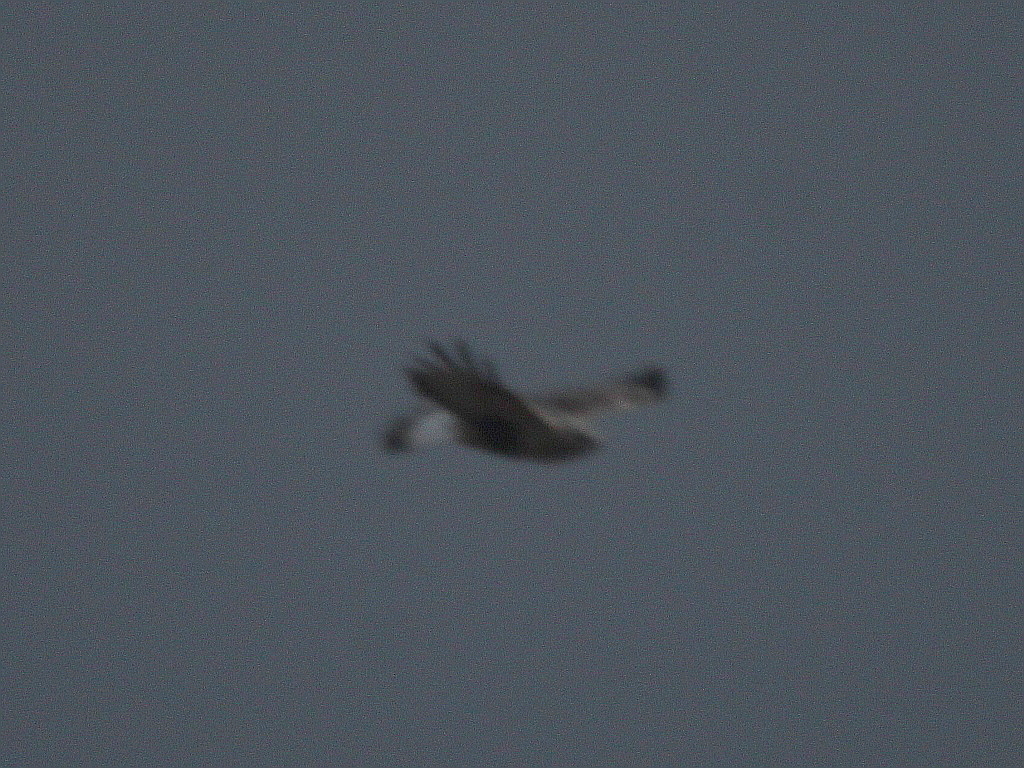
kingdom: Animalia
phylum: Chordata
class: Aves
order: Accipitriformes
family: Accipitridae
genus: Buteo
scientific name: Buteo lagopus
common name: Rough-legged buzzard
